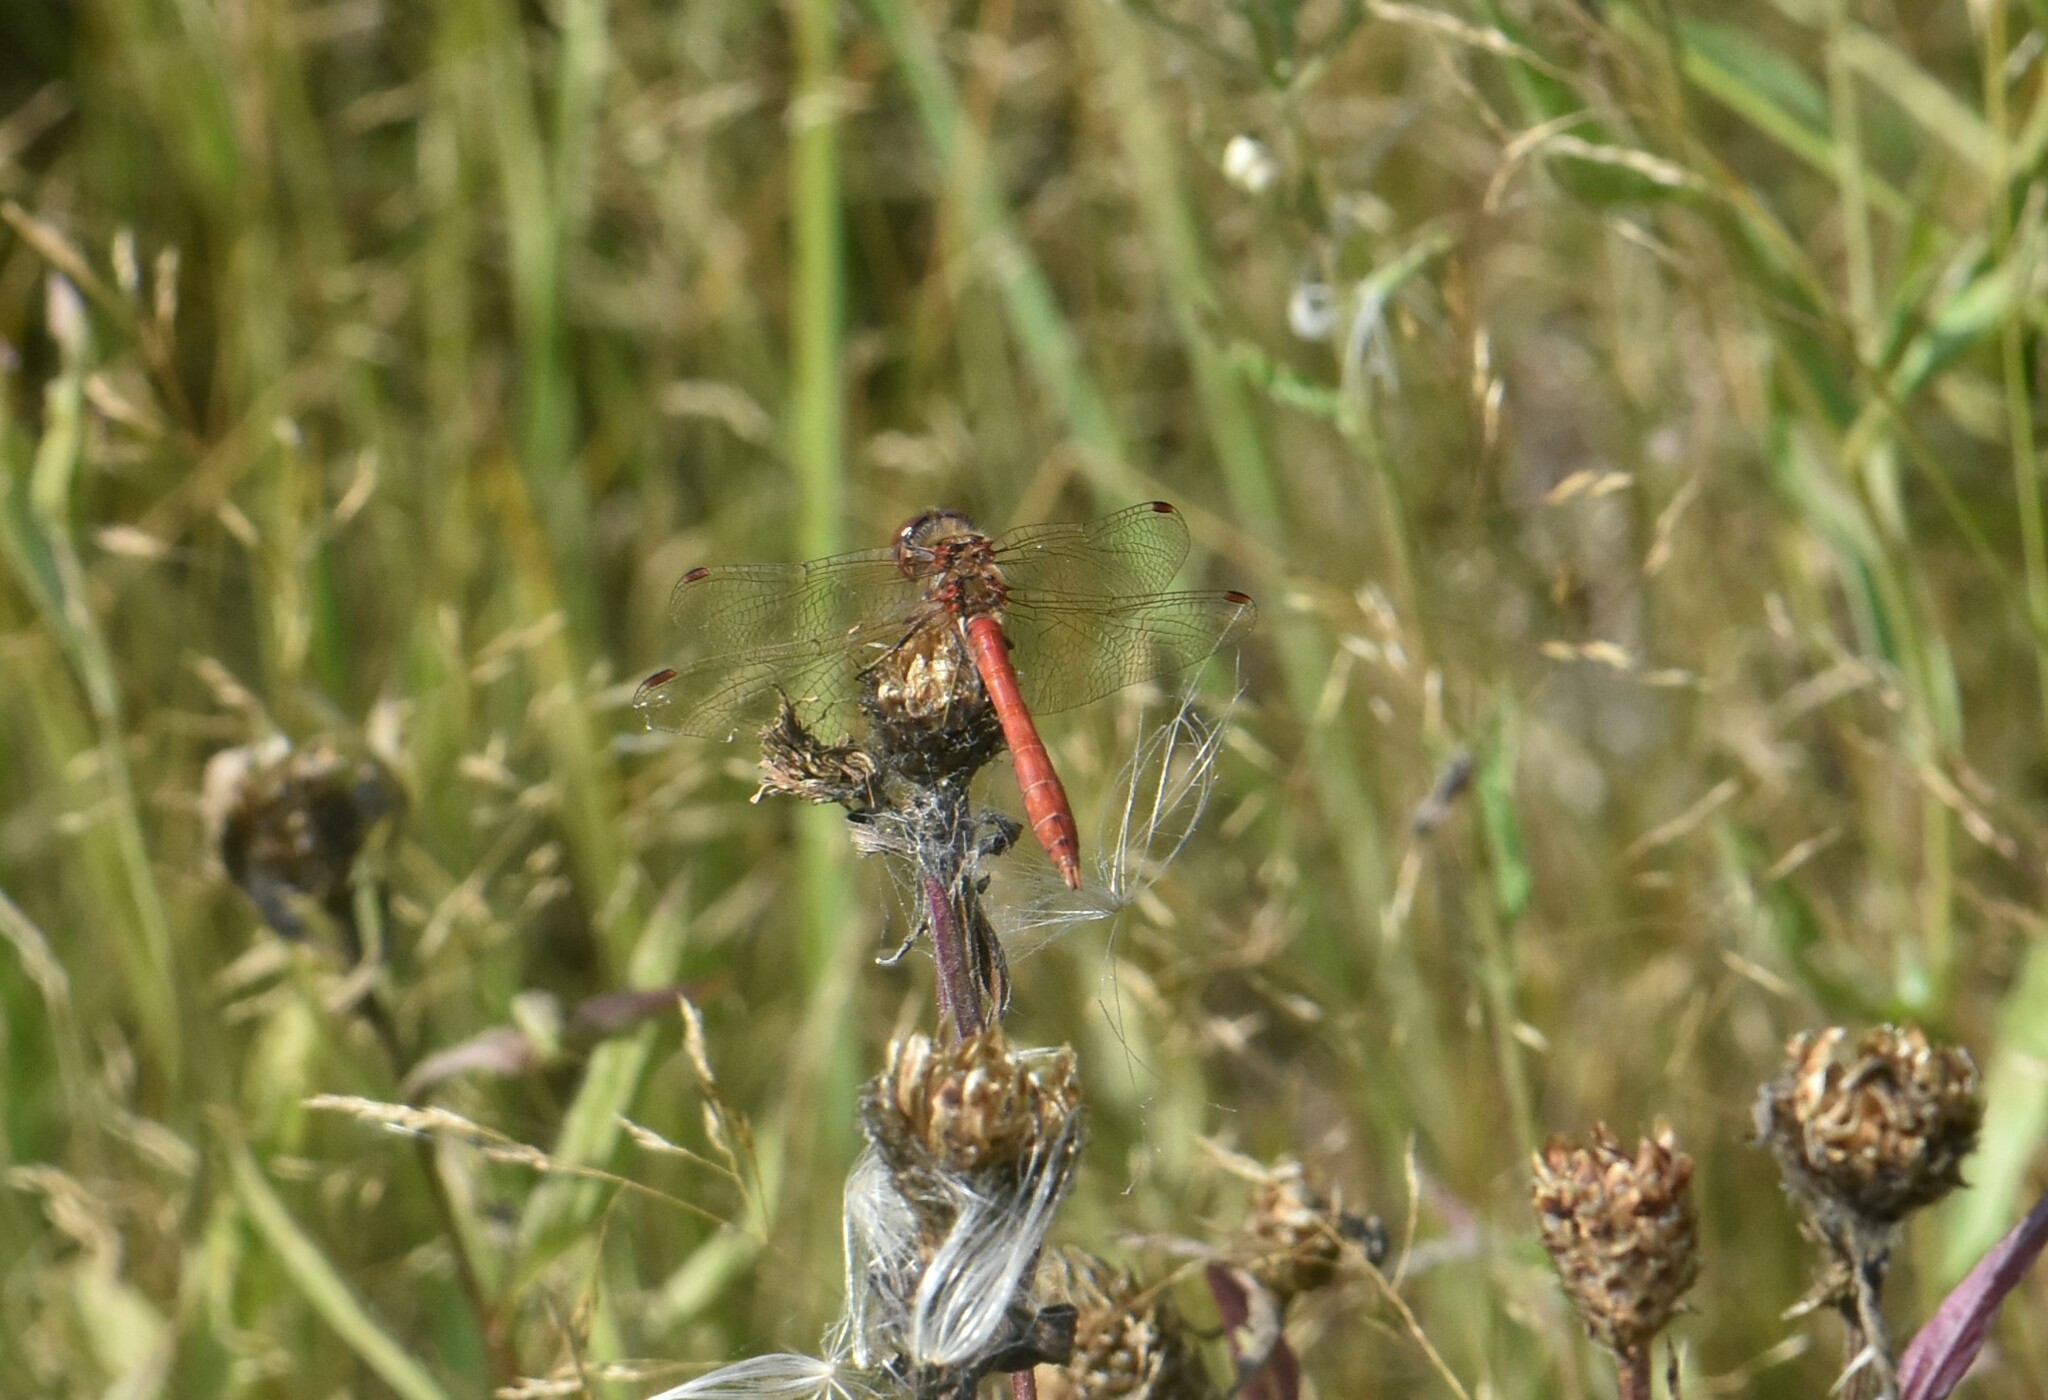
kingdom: Animalia
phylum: Arthropoda
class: Insecta
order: Odonata
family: Libellulidae
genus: Sympetrum
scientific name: Sympetrum vulgatum
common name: Vagrant darter
